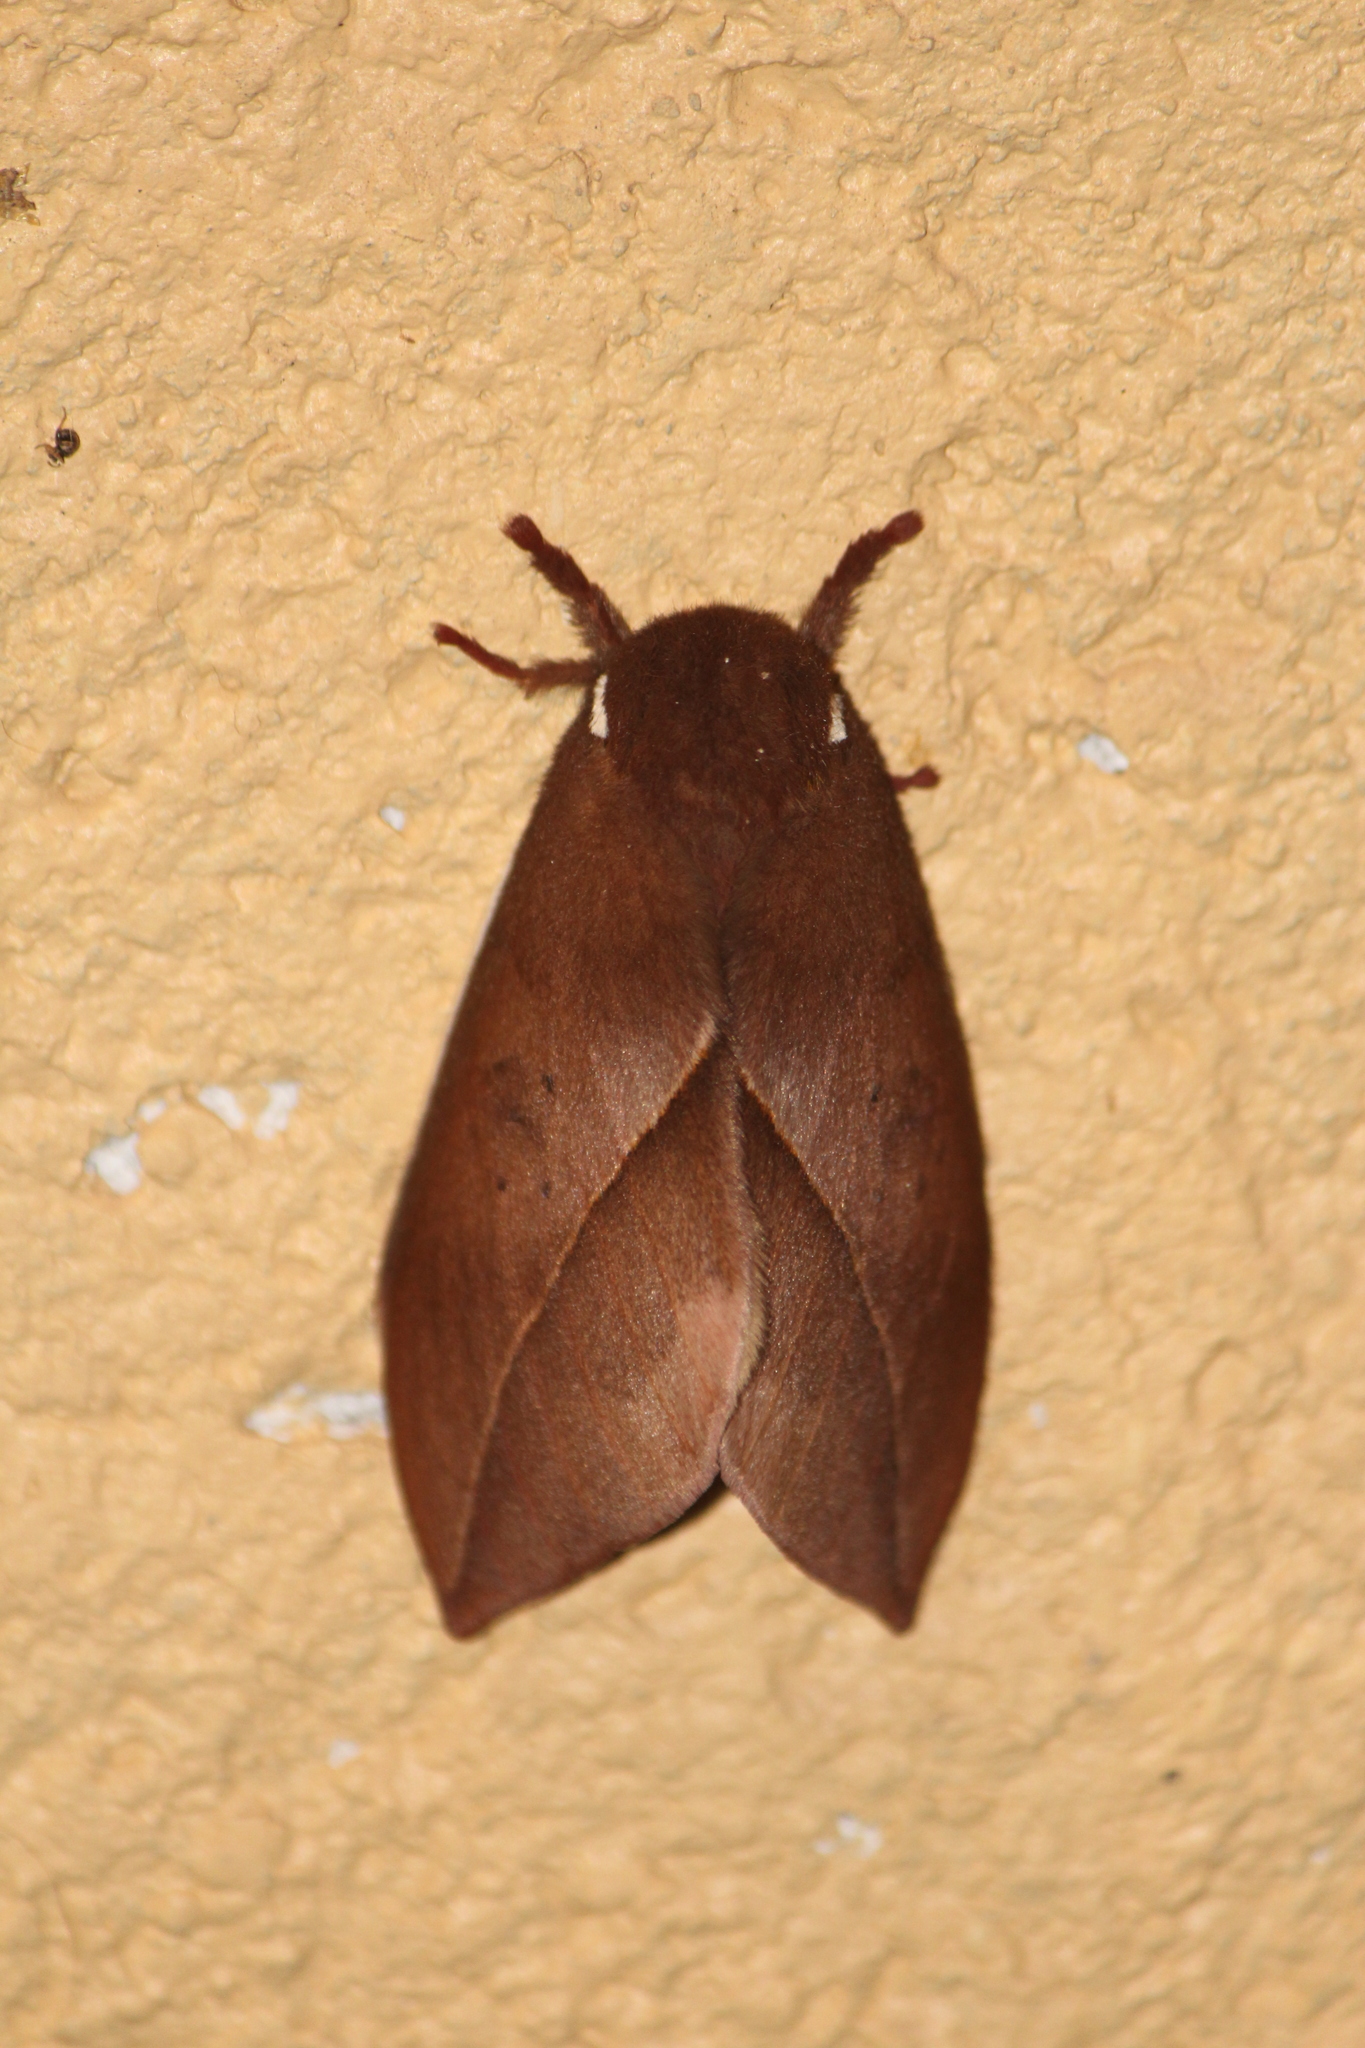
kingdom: Animalia
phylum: Arthropoda
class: Insecta
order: Lepidoptera
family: Saturniidae
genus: Automeris
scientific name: Automeris belti
